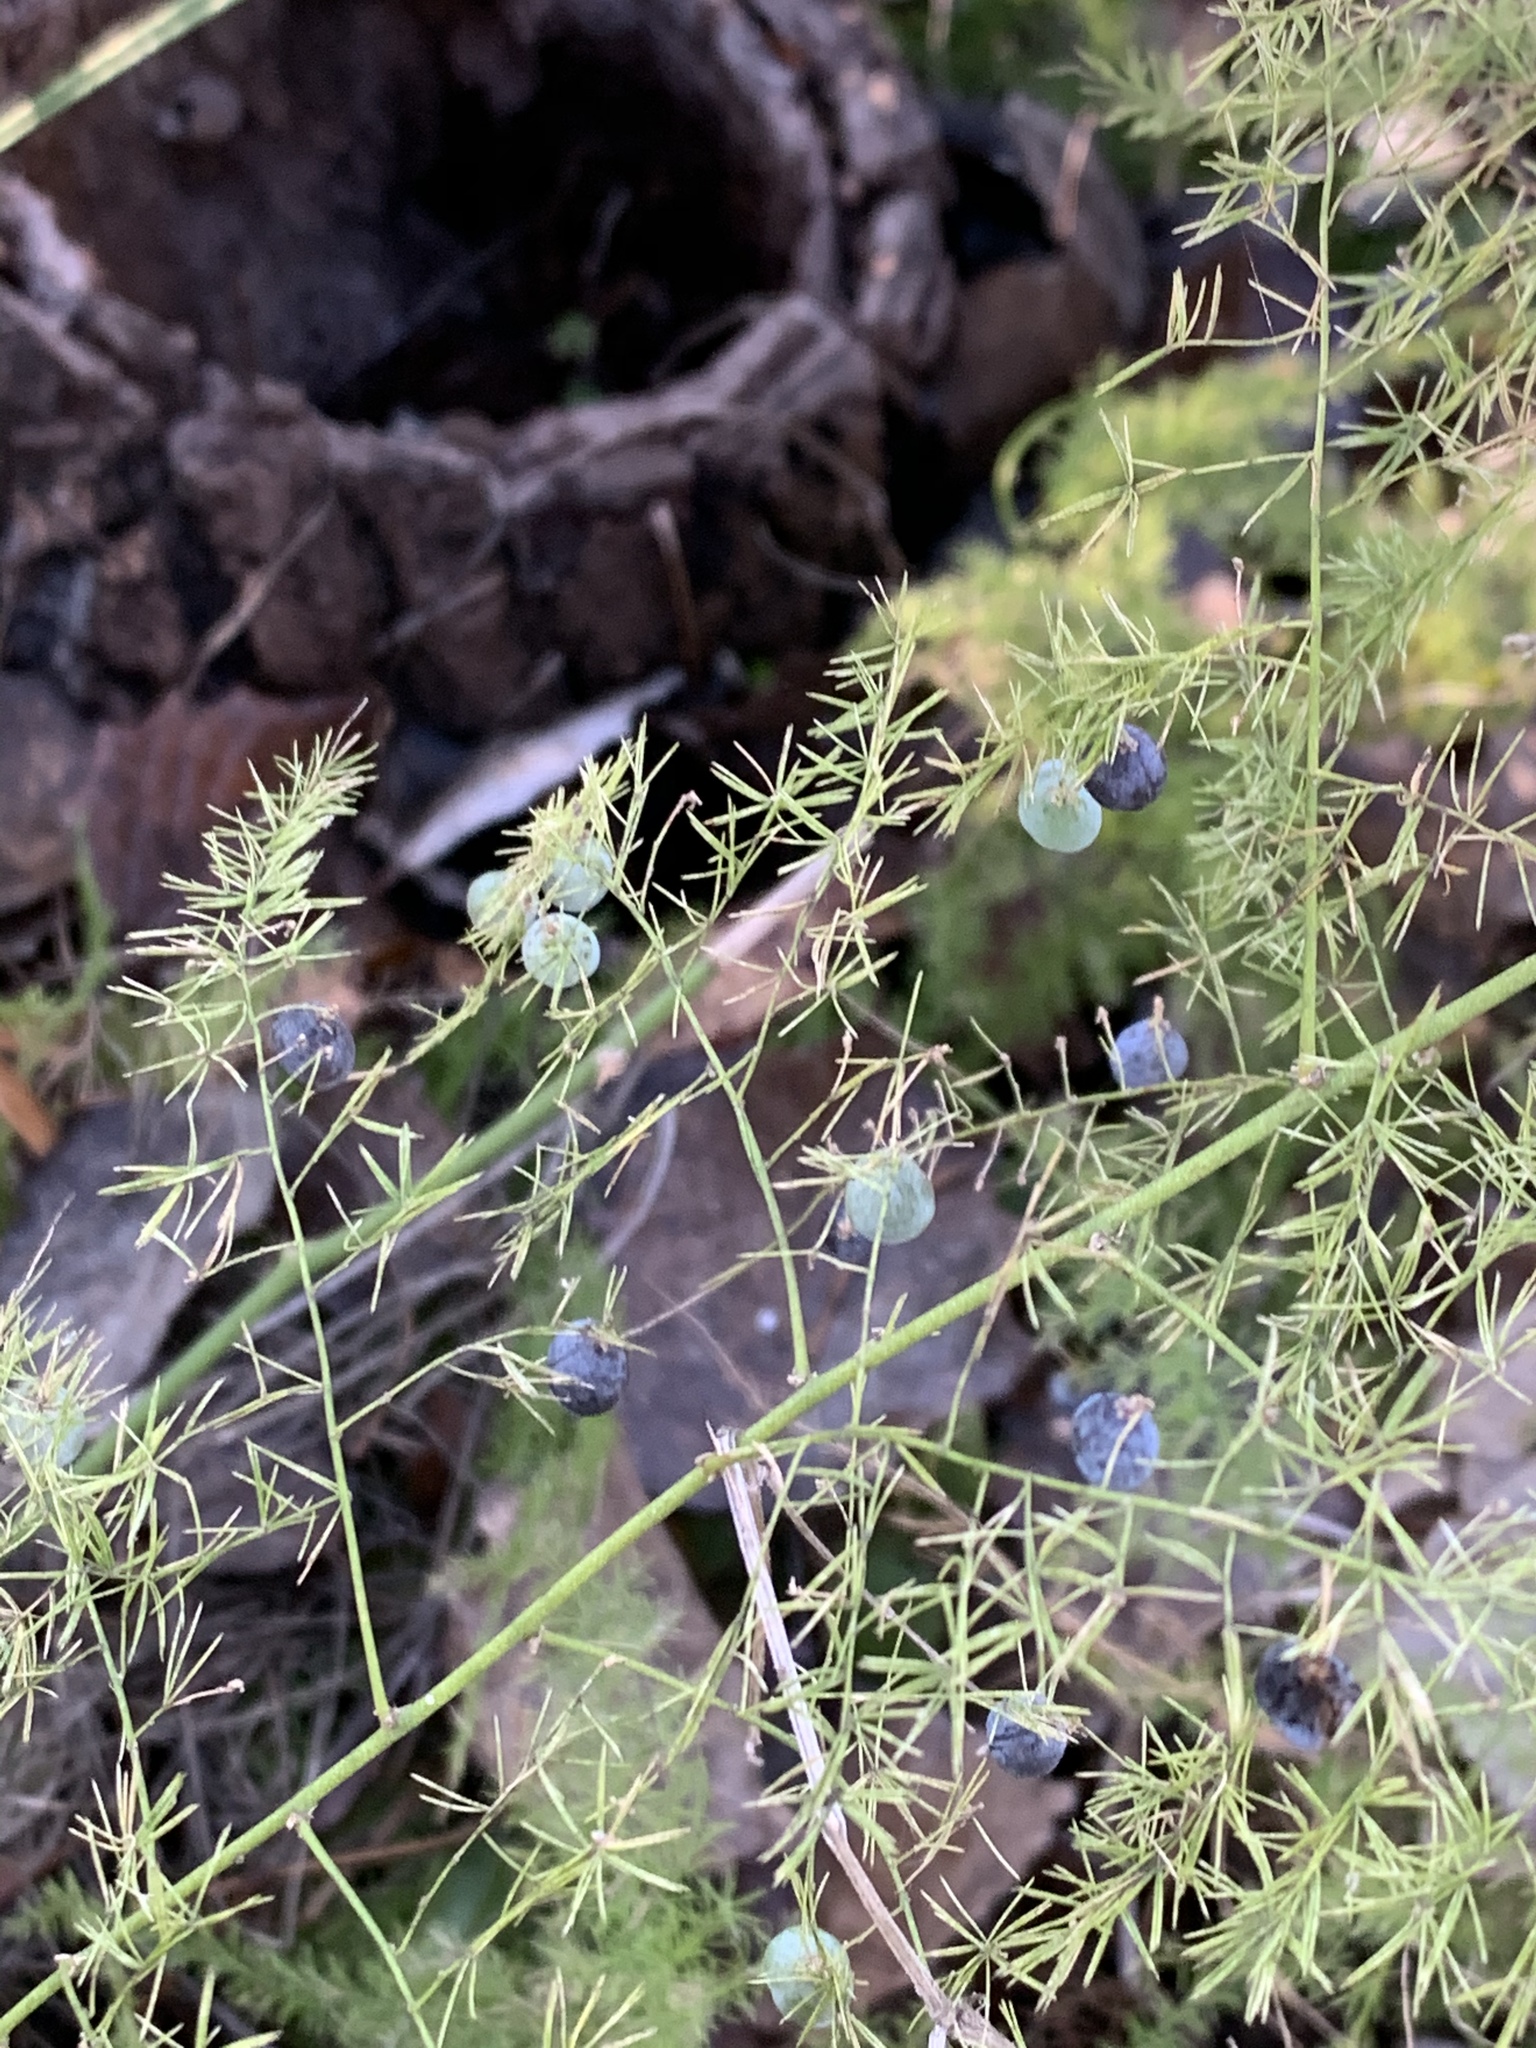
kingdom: Plantae
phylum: Tracheophyta
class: Liliopsida
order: Asparagales
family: Asparagaceae
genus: Asparagus
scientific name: Asparagus setaceus
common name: Common asparagus fern
